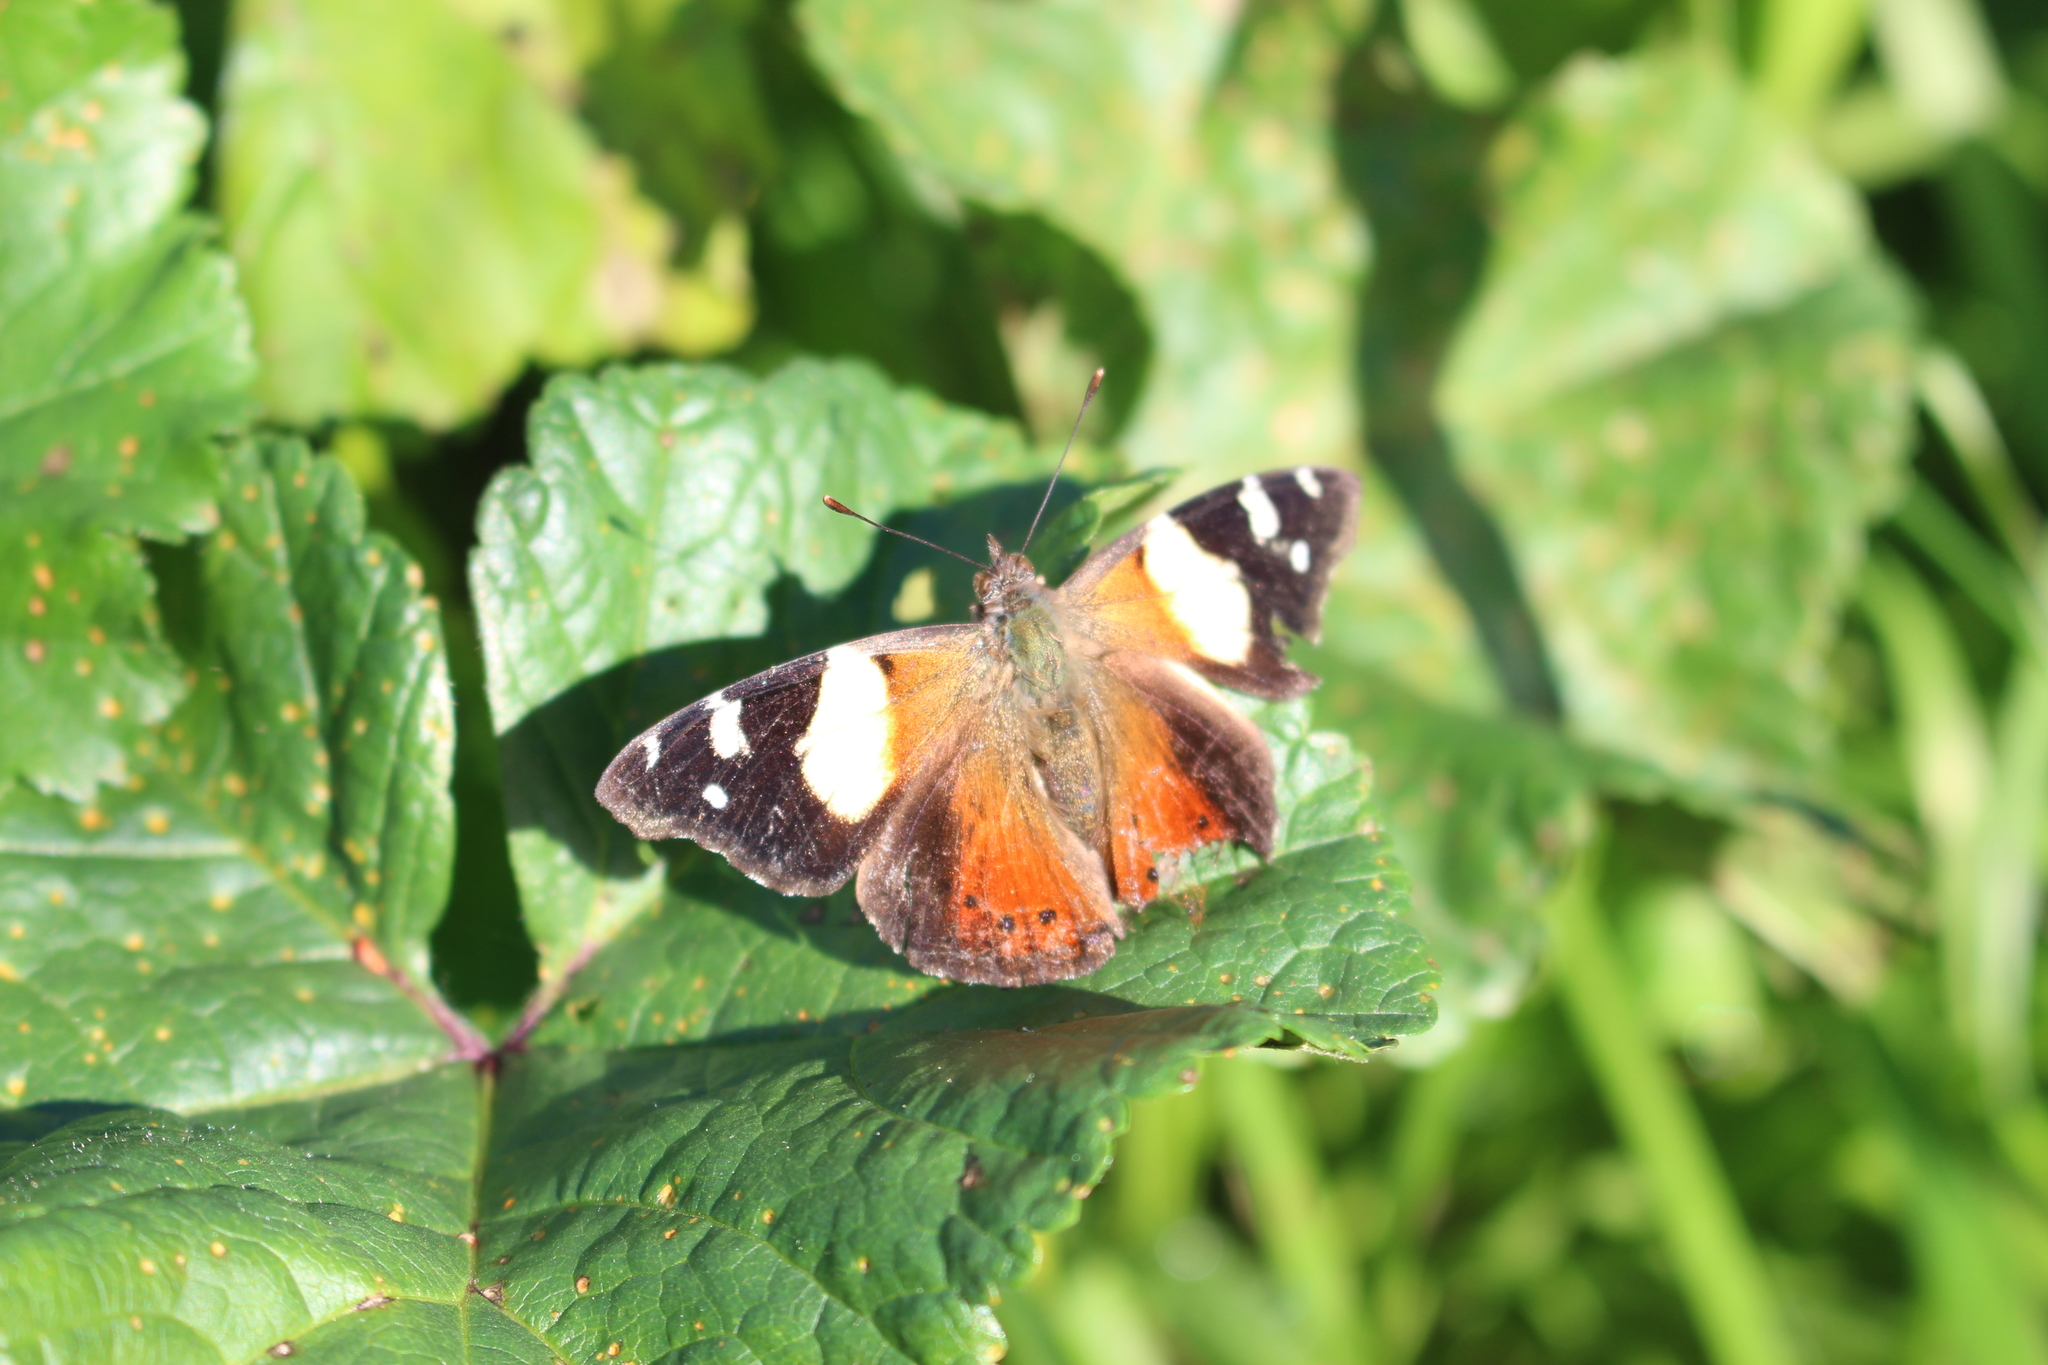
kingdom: Animalia
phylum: Arthropoda
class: Insecta
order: Lepidoptera
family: Nymphalidae
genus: Vanessa
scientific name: Vanessa itea
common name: Yellow admiral
